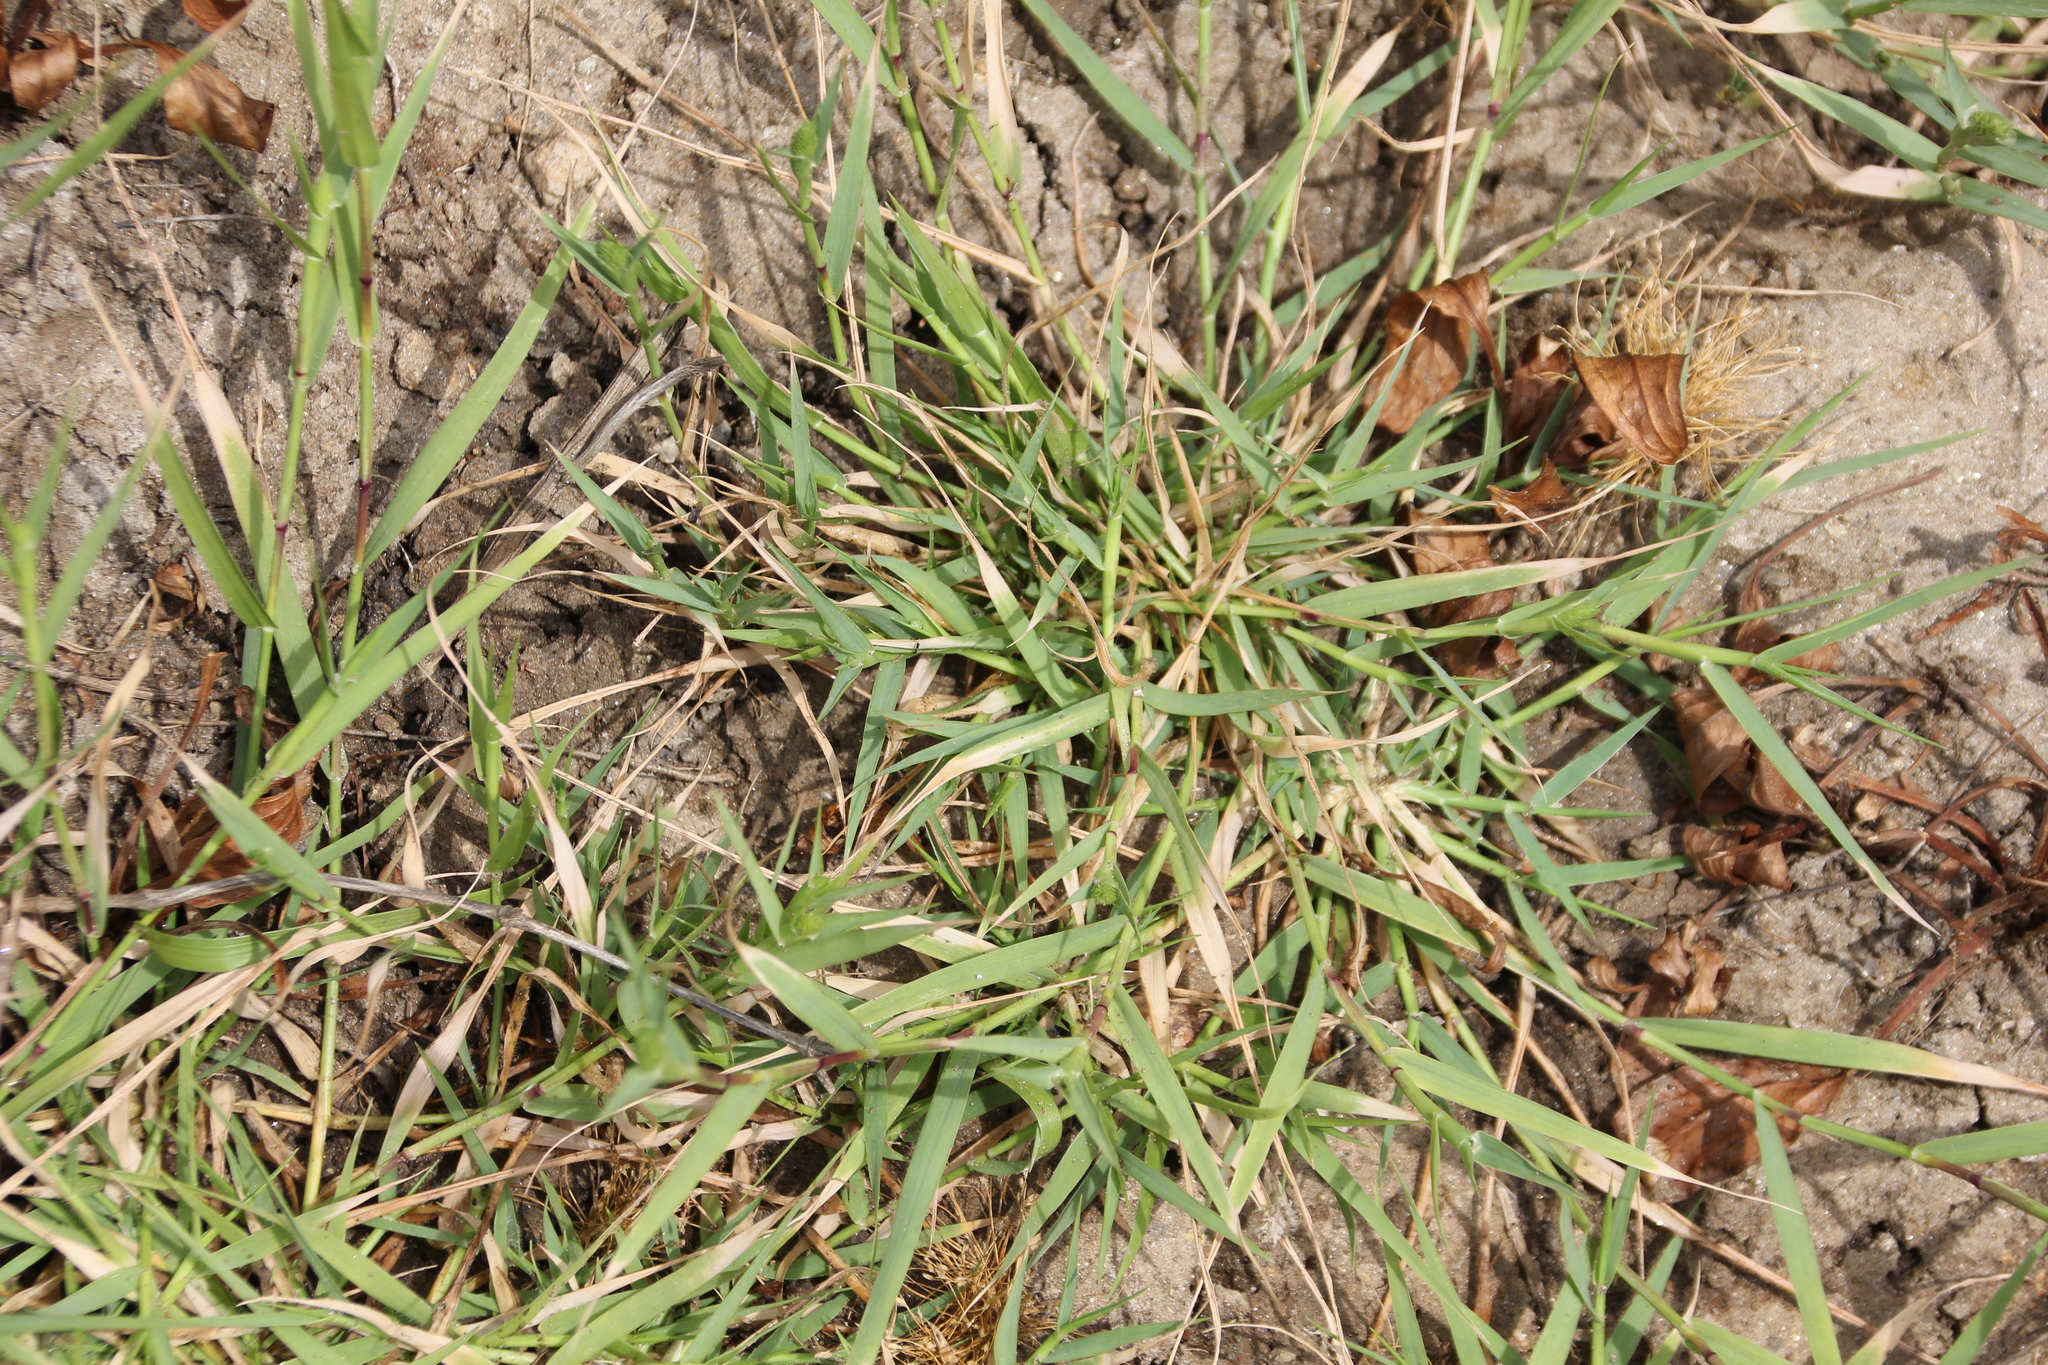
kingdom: Plantae
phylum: Tracheophyta
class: Liliopsida
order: Poales
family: Poaceae
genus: Sporobolus
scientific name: Sporobolus schoenoides
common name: Rush-like timothy
